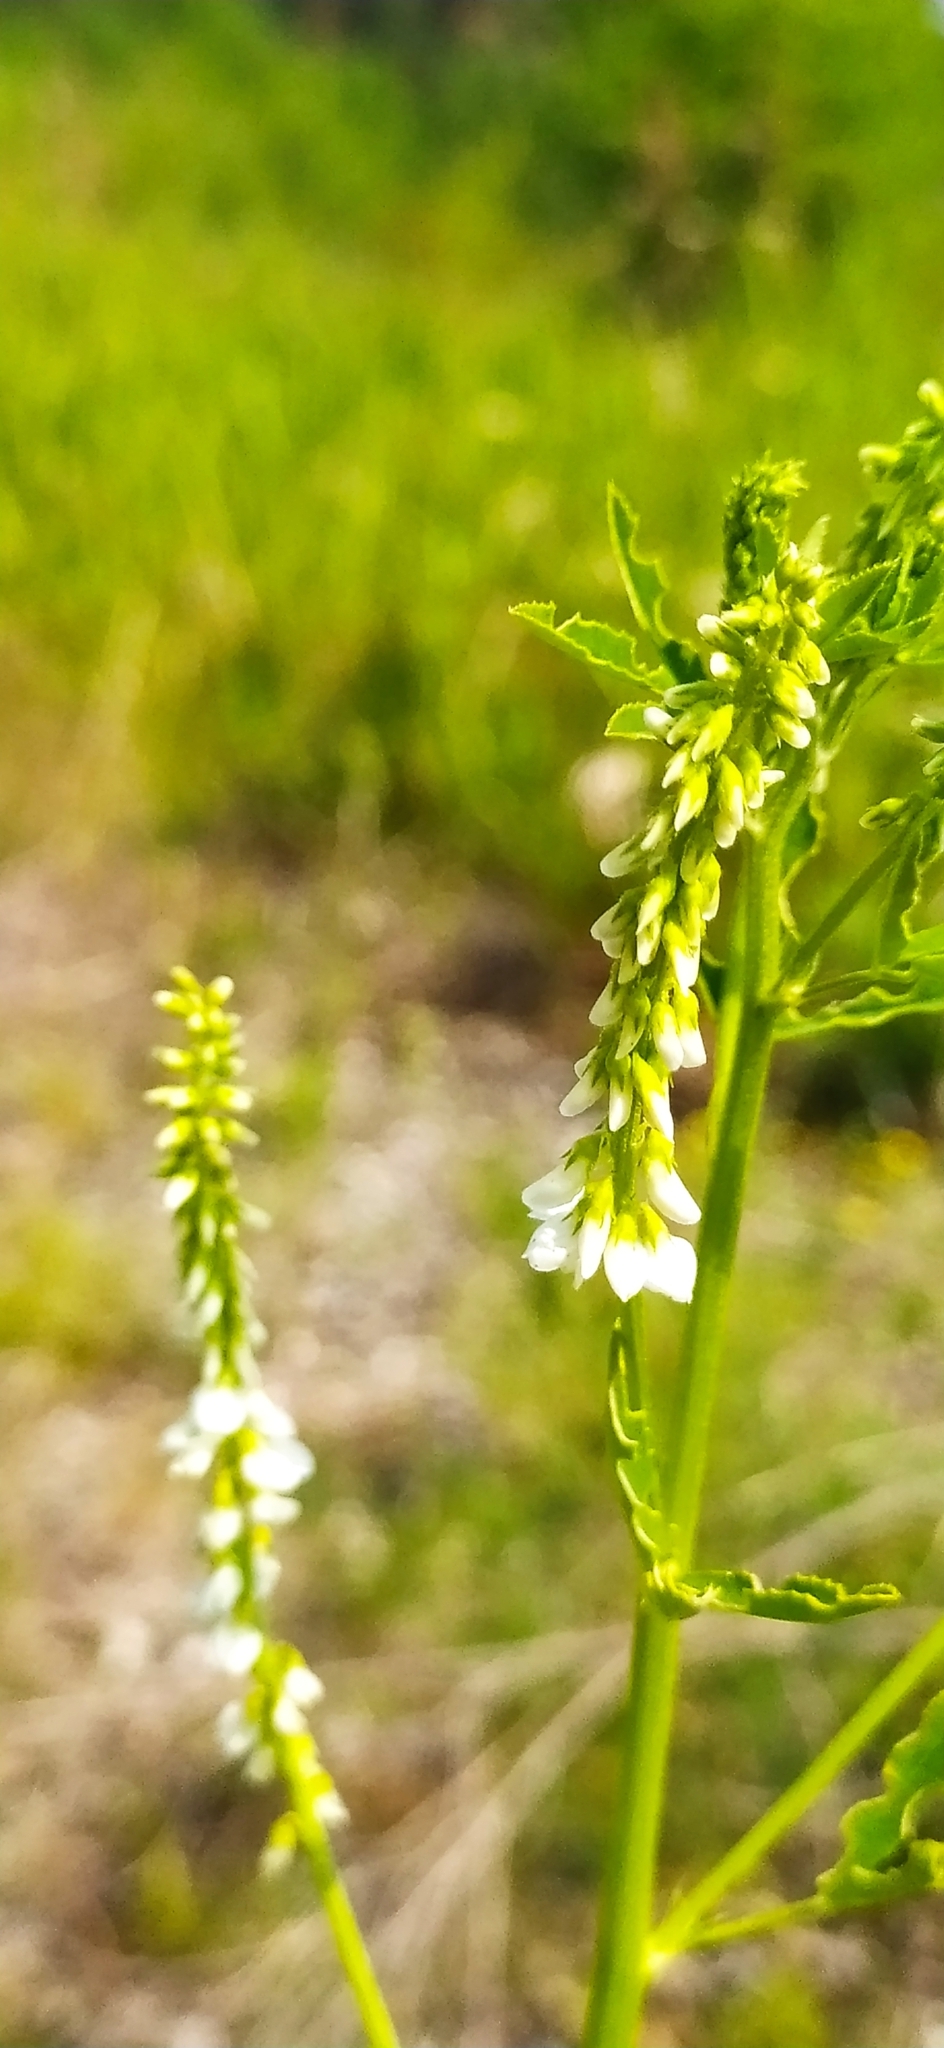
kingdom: Plantae
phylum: Tracheophyta
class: Magnoliopsida
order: Fabales
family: Fabaceae
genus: Melilotus
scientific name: Melilotus albus
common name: White melilot
